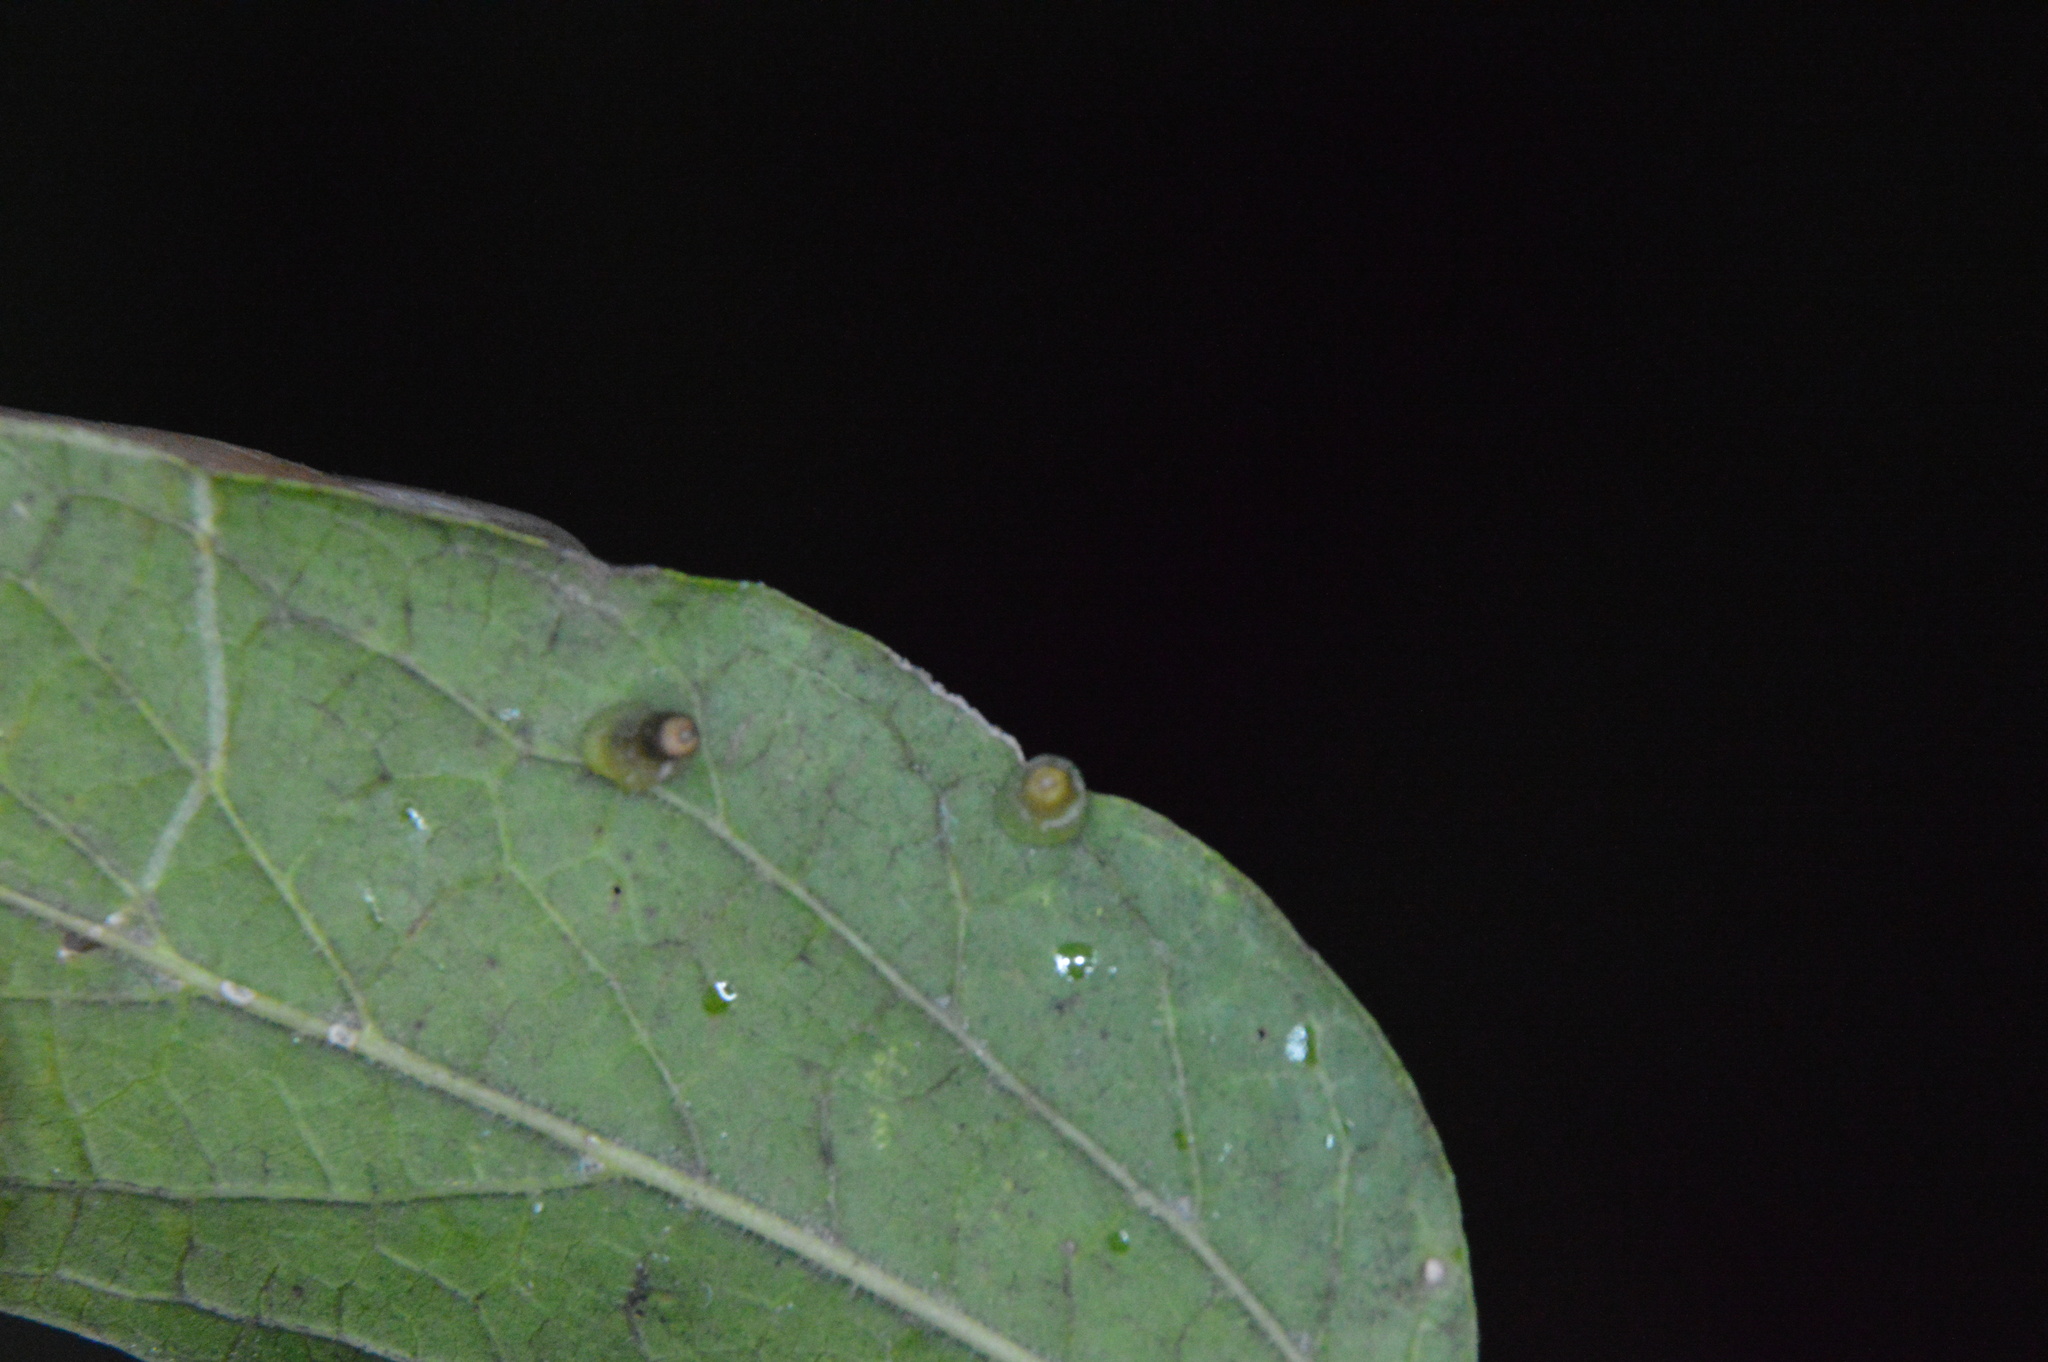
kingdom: Animalia
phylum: Arthropoda
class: Insecta
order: Diptera
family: Cecidomyiidae
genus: Celticecis
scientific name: Celticecis aciculata
